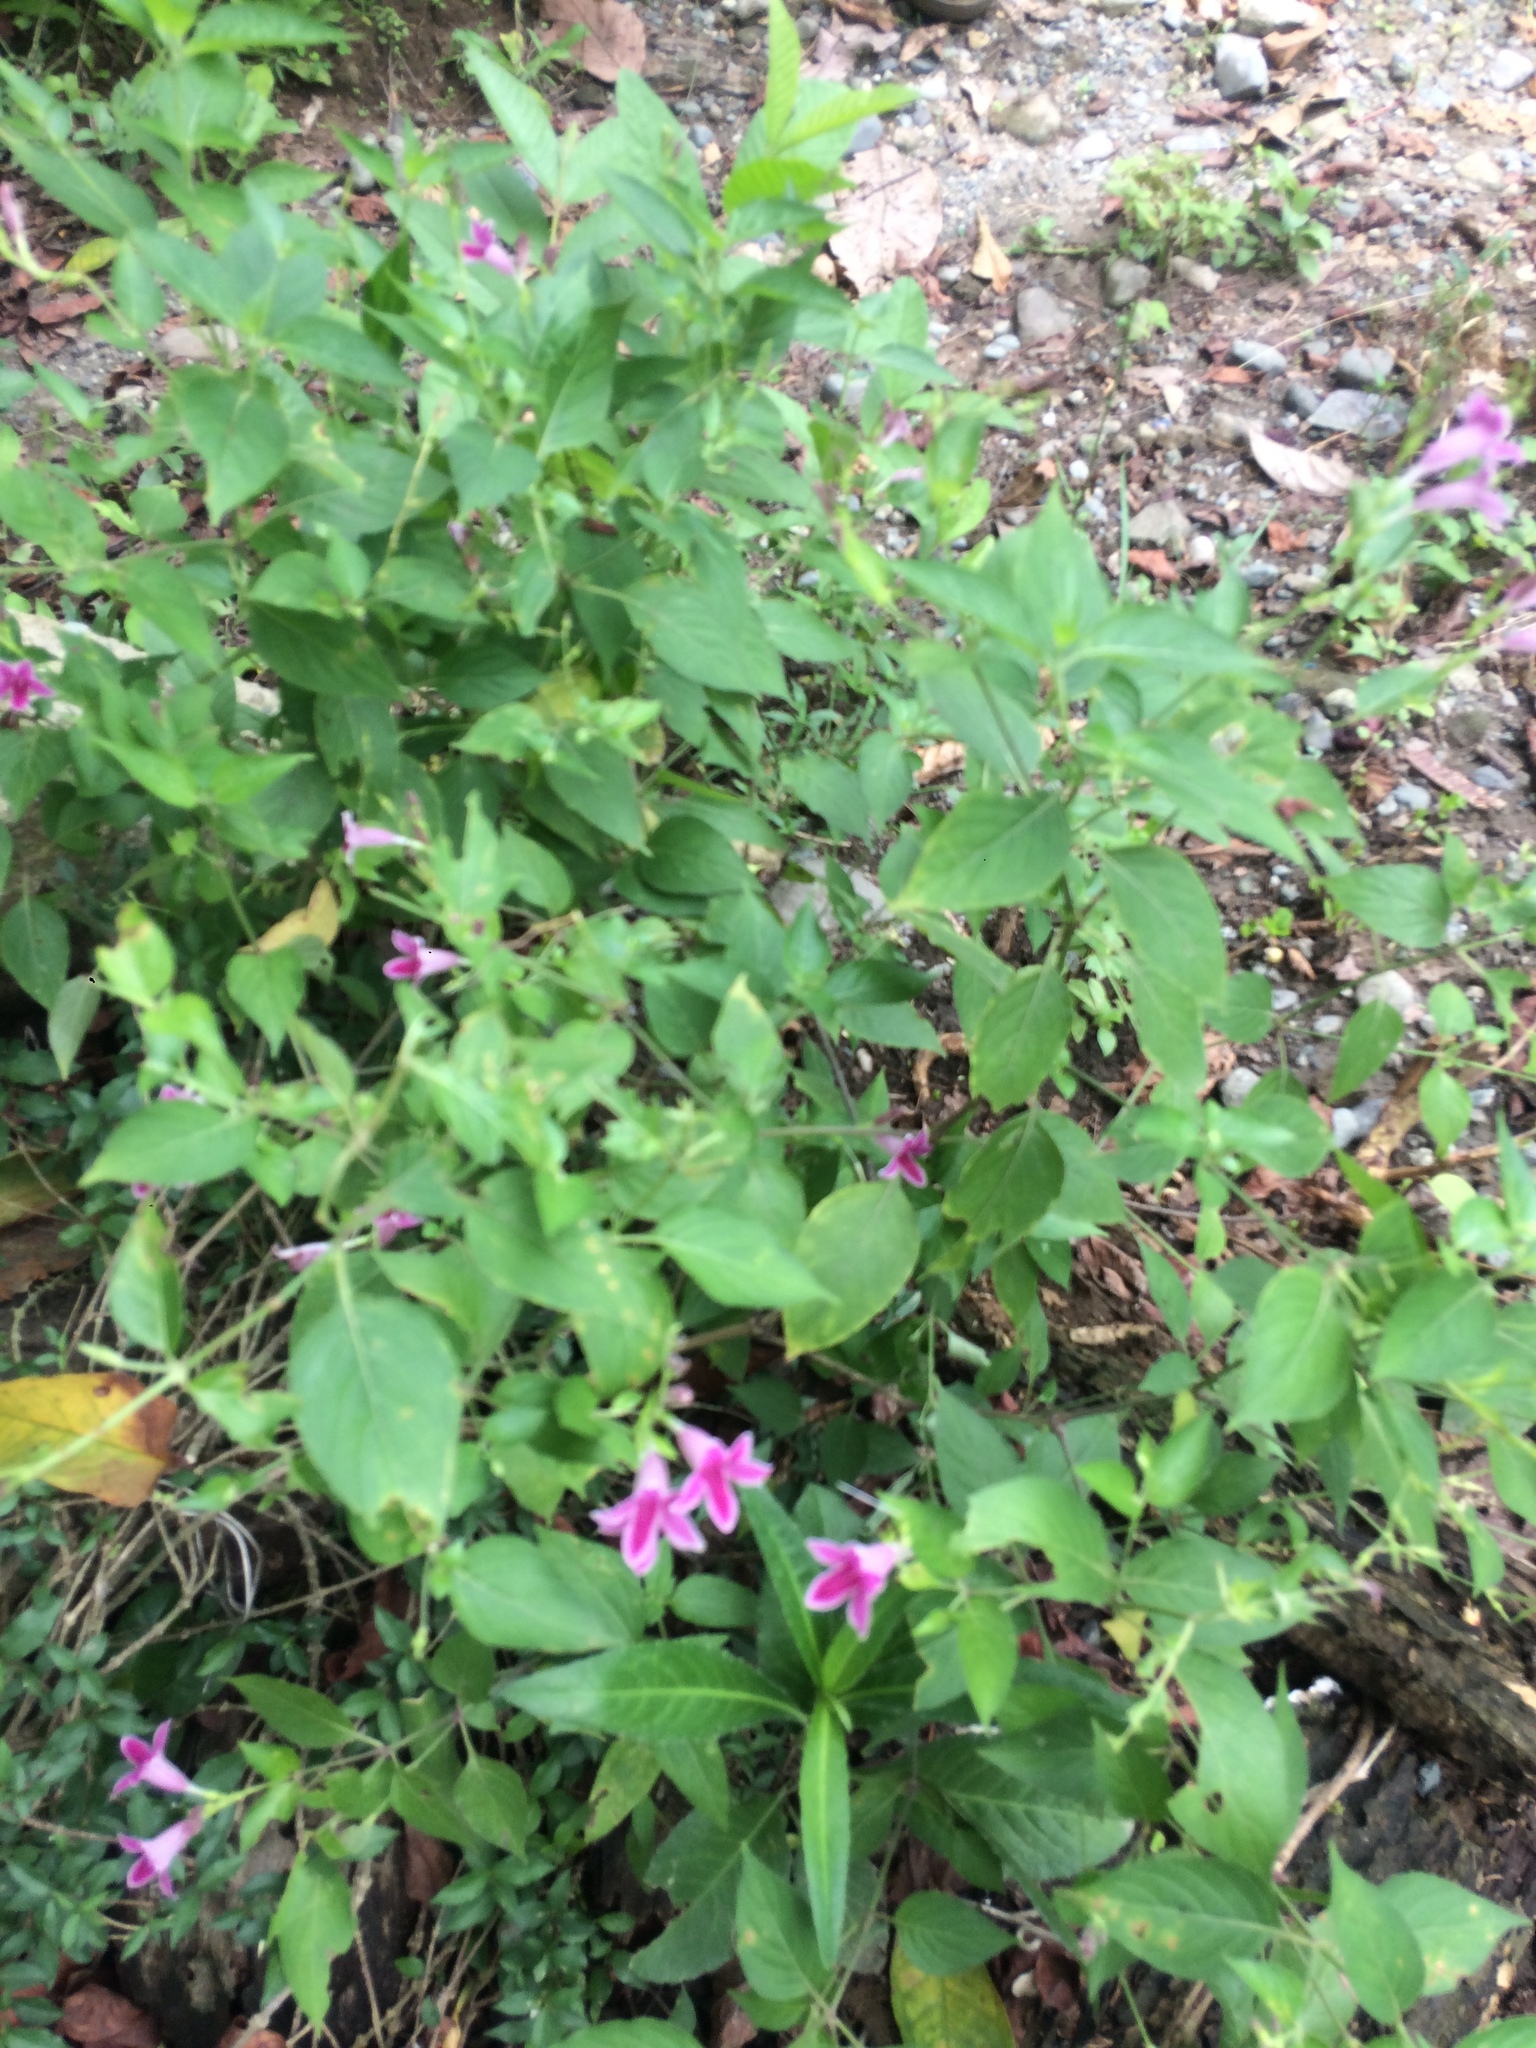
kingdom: Plantae
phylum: Tracheophyta
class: Magnoliopsida
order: Lamiales
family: Acanthaceae
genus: Asystasia
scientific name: Asystasia nemorum
